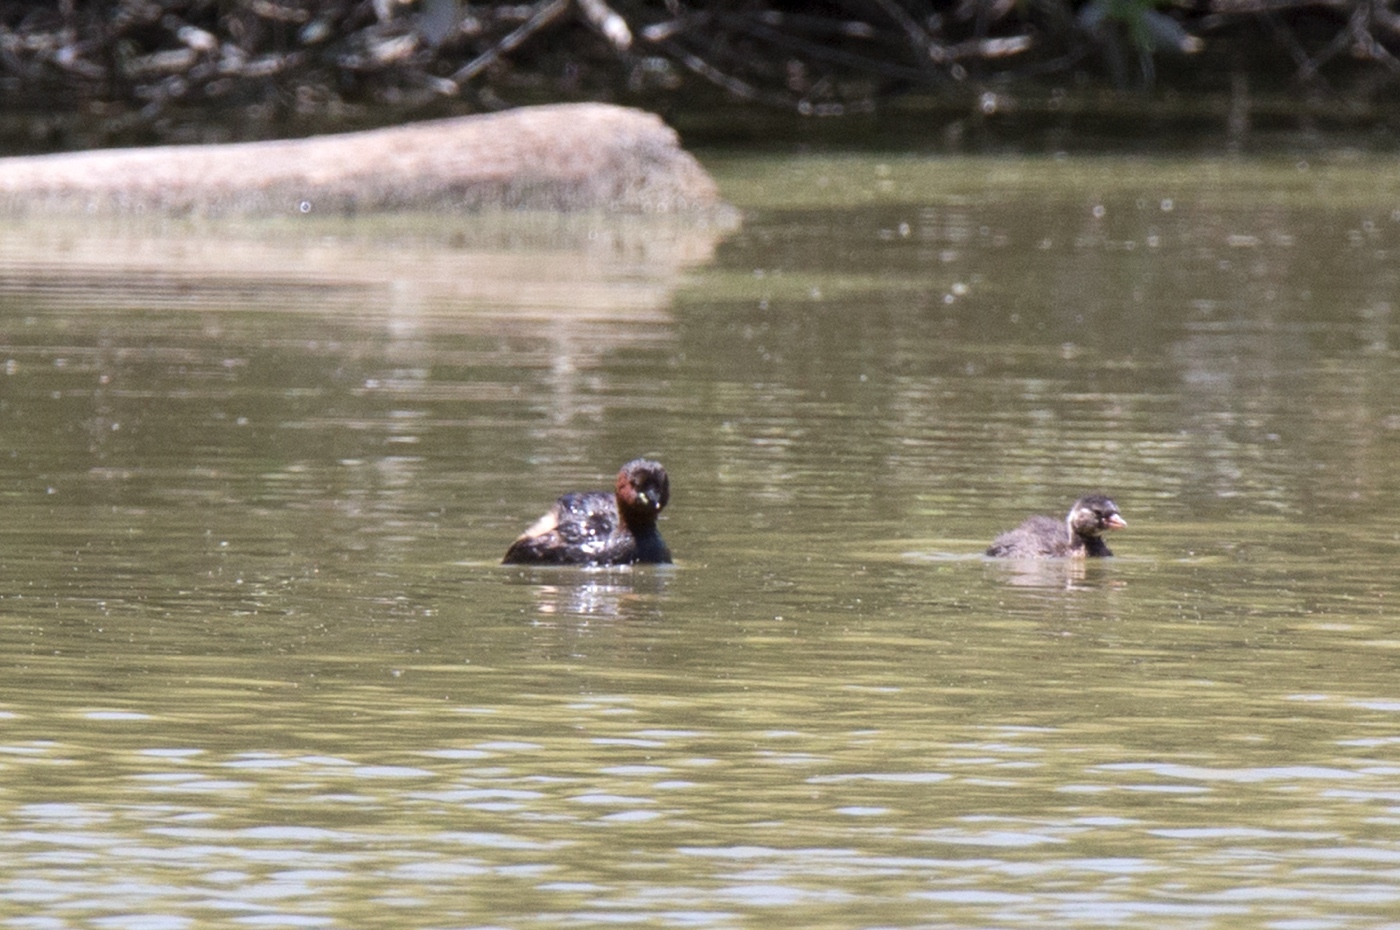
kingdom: Animalia
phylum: Chordata
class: Aves
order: Podicipediformes
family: Podicipedidae
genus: Tachybaptus
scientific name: Tachybaptus ruficollis
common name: Little grebe
